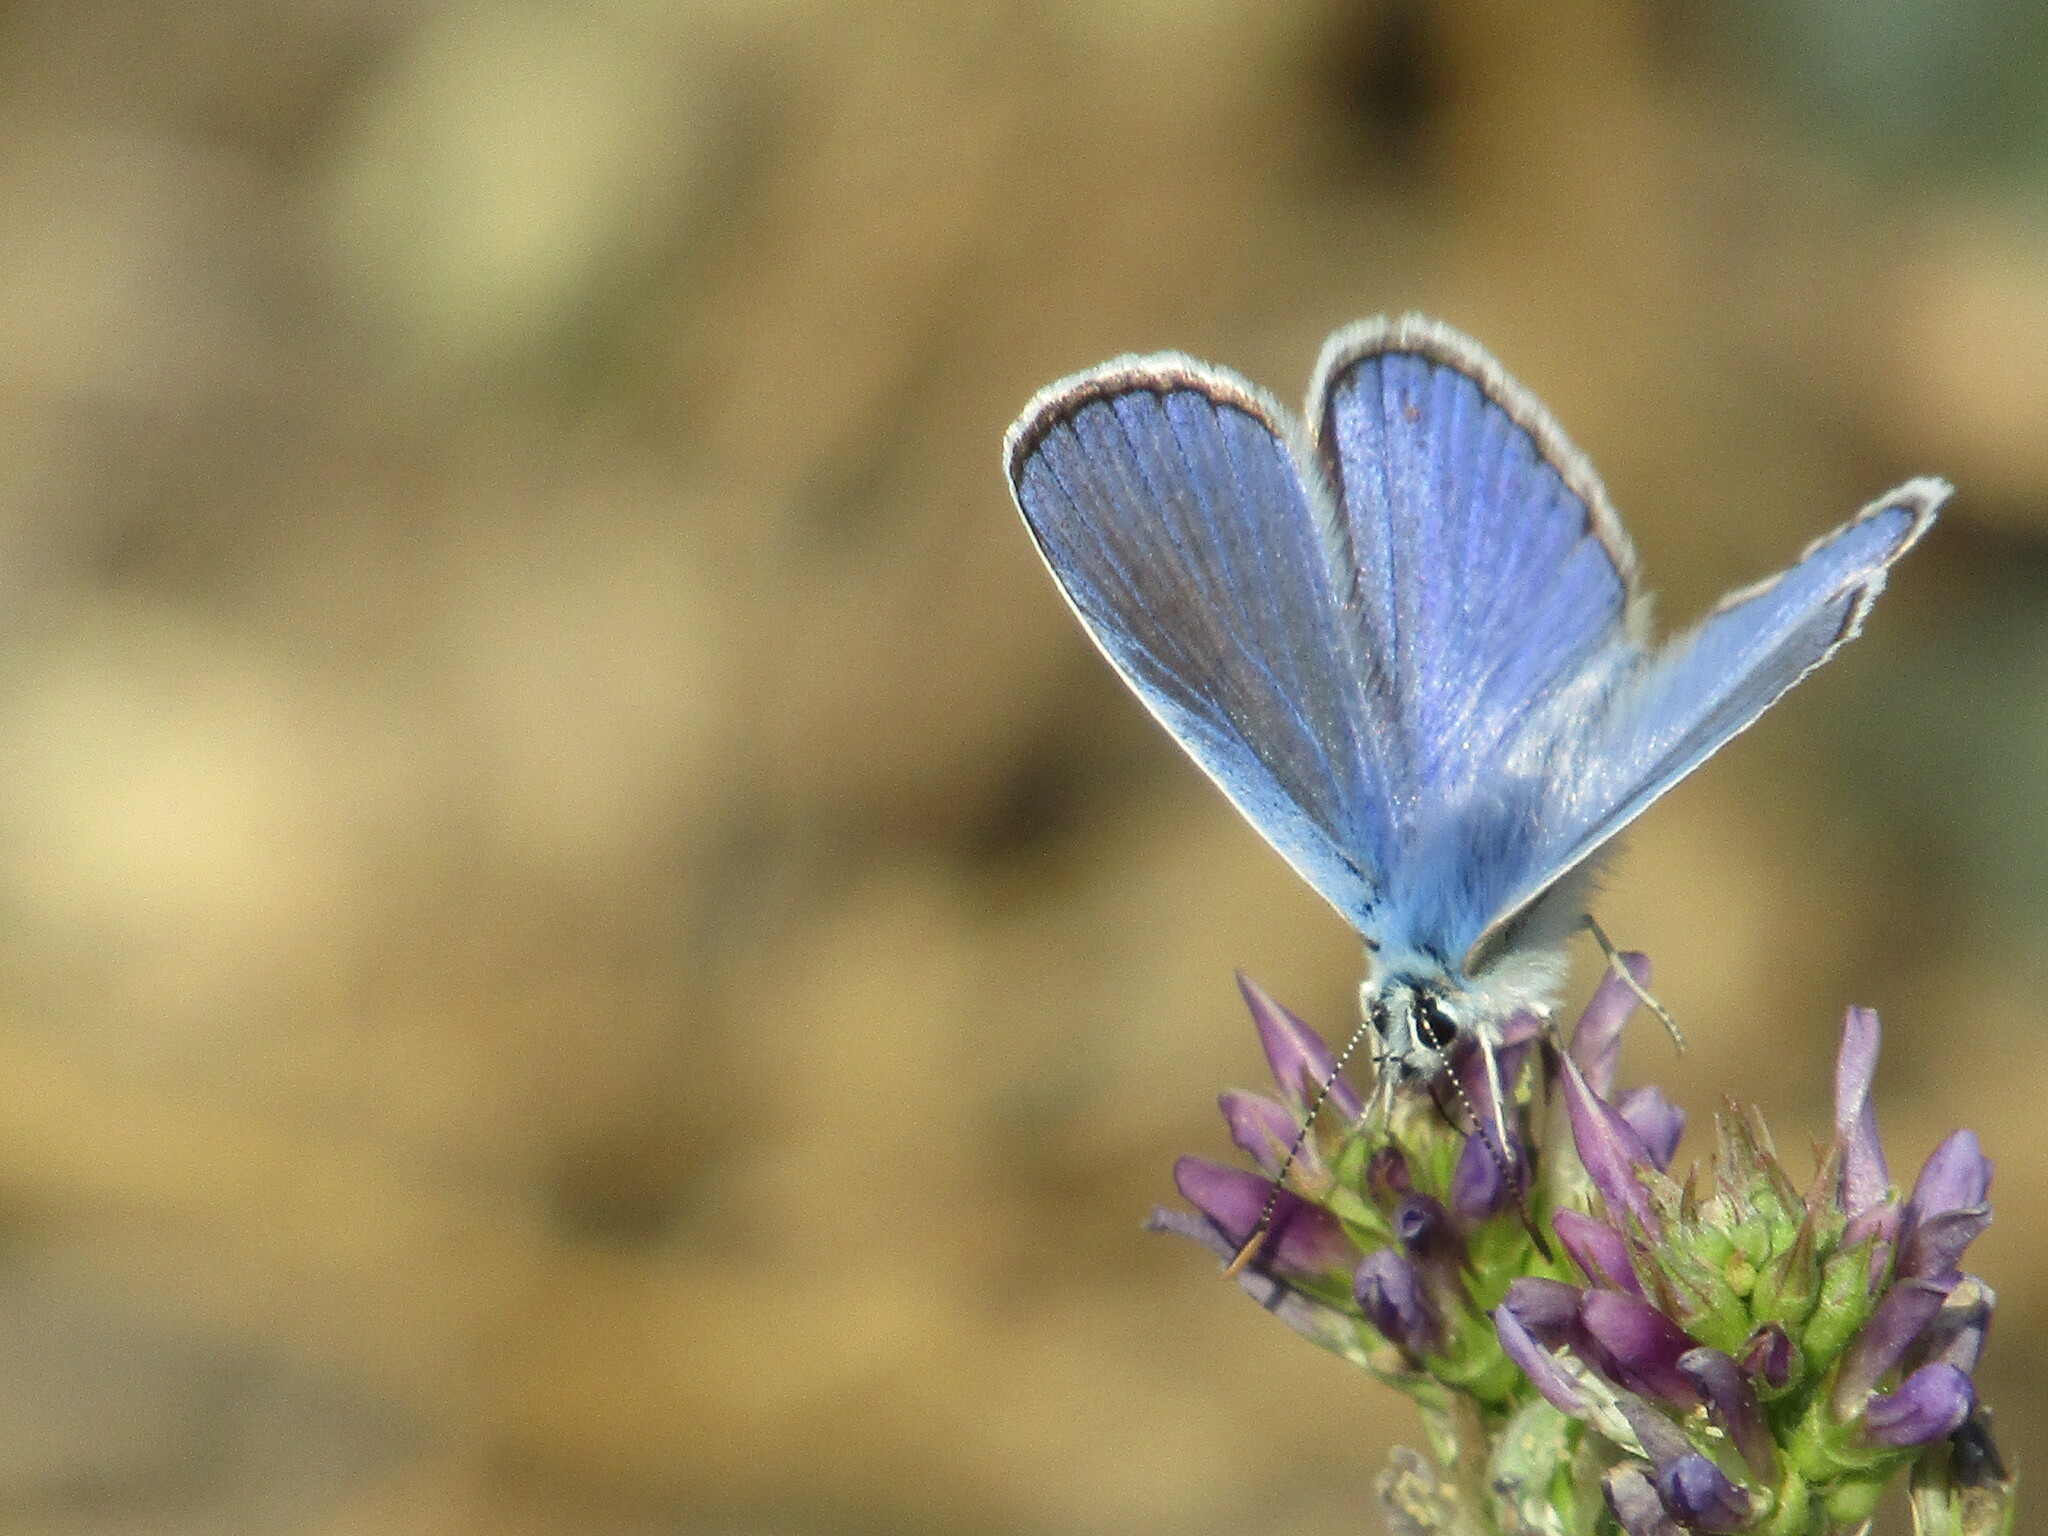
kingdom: Animalia
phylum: Arthropoda
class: Insecta
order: Lepidoptera
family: Lycaenidae
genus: Polyommatus
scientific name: Polyommatus icarus
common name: Common blue
